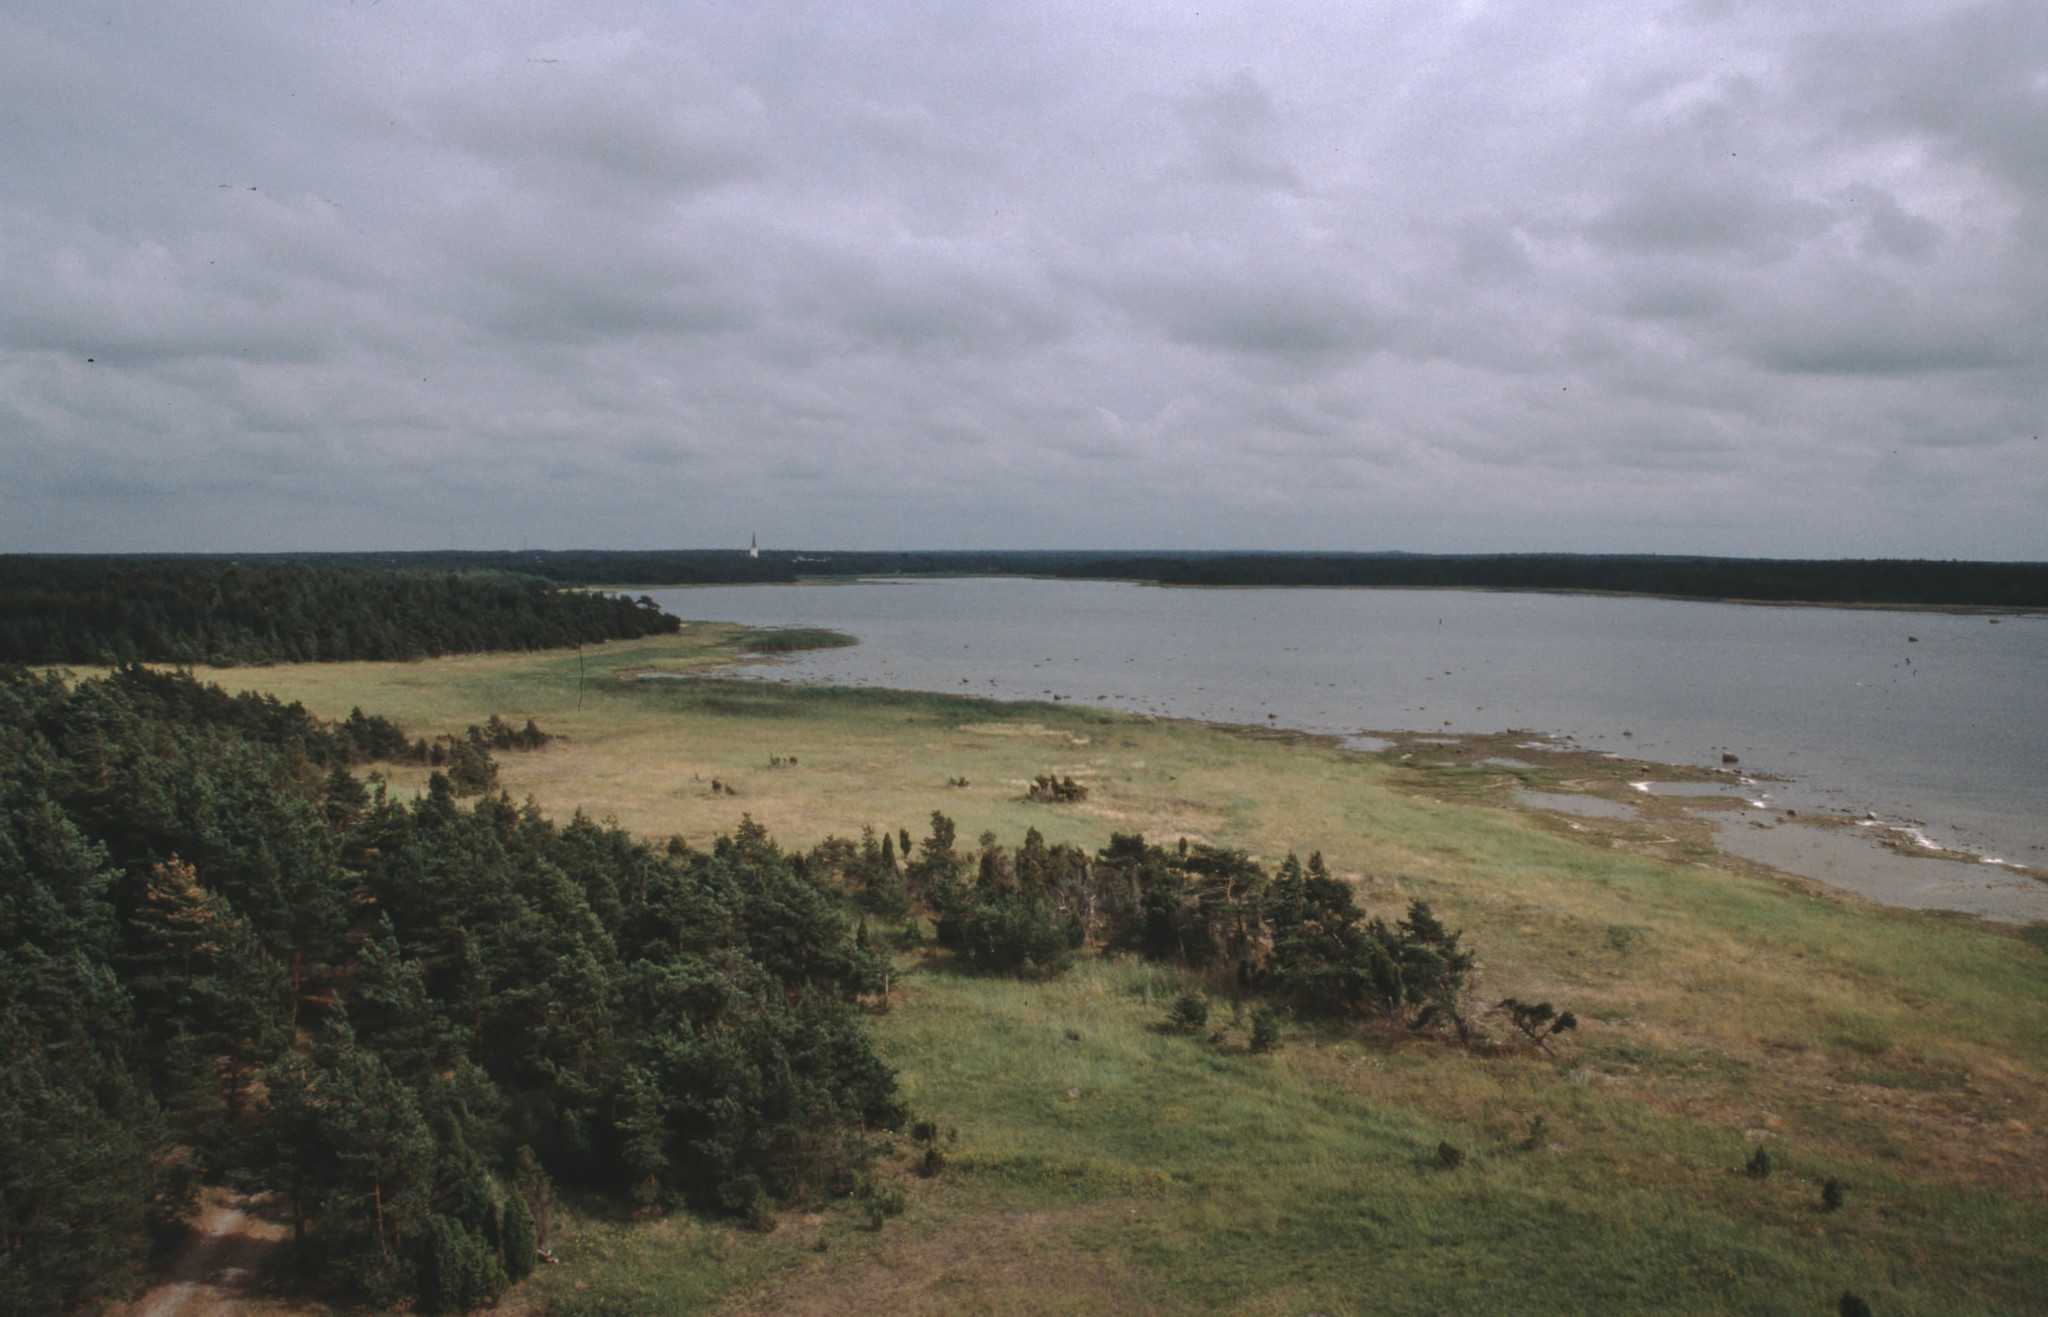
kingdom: Plantae
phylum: Tracheophyta
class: Pinopsida
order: Pinales
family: Pinaceae
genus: Pinus
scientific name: Pinus sylvestris
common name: Scots pine
